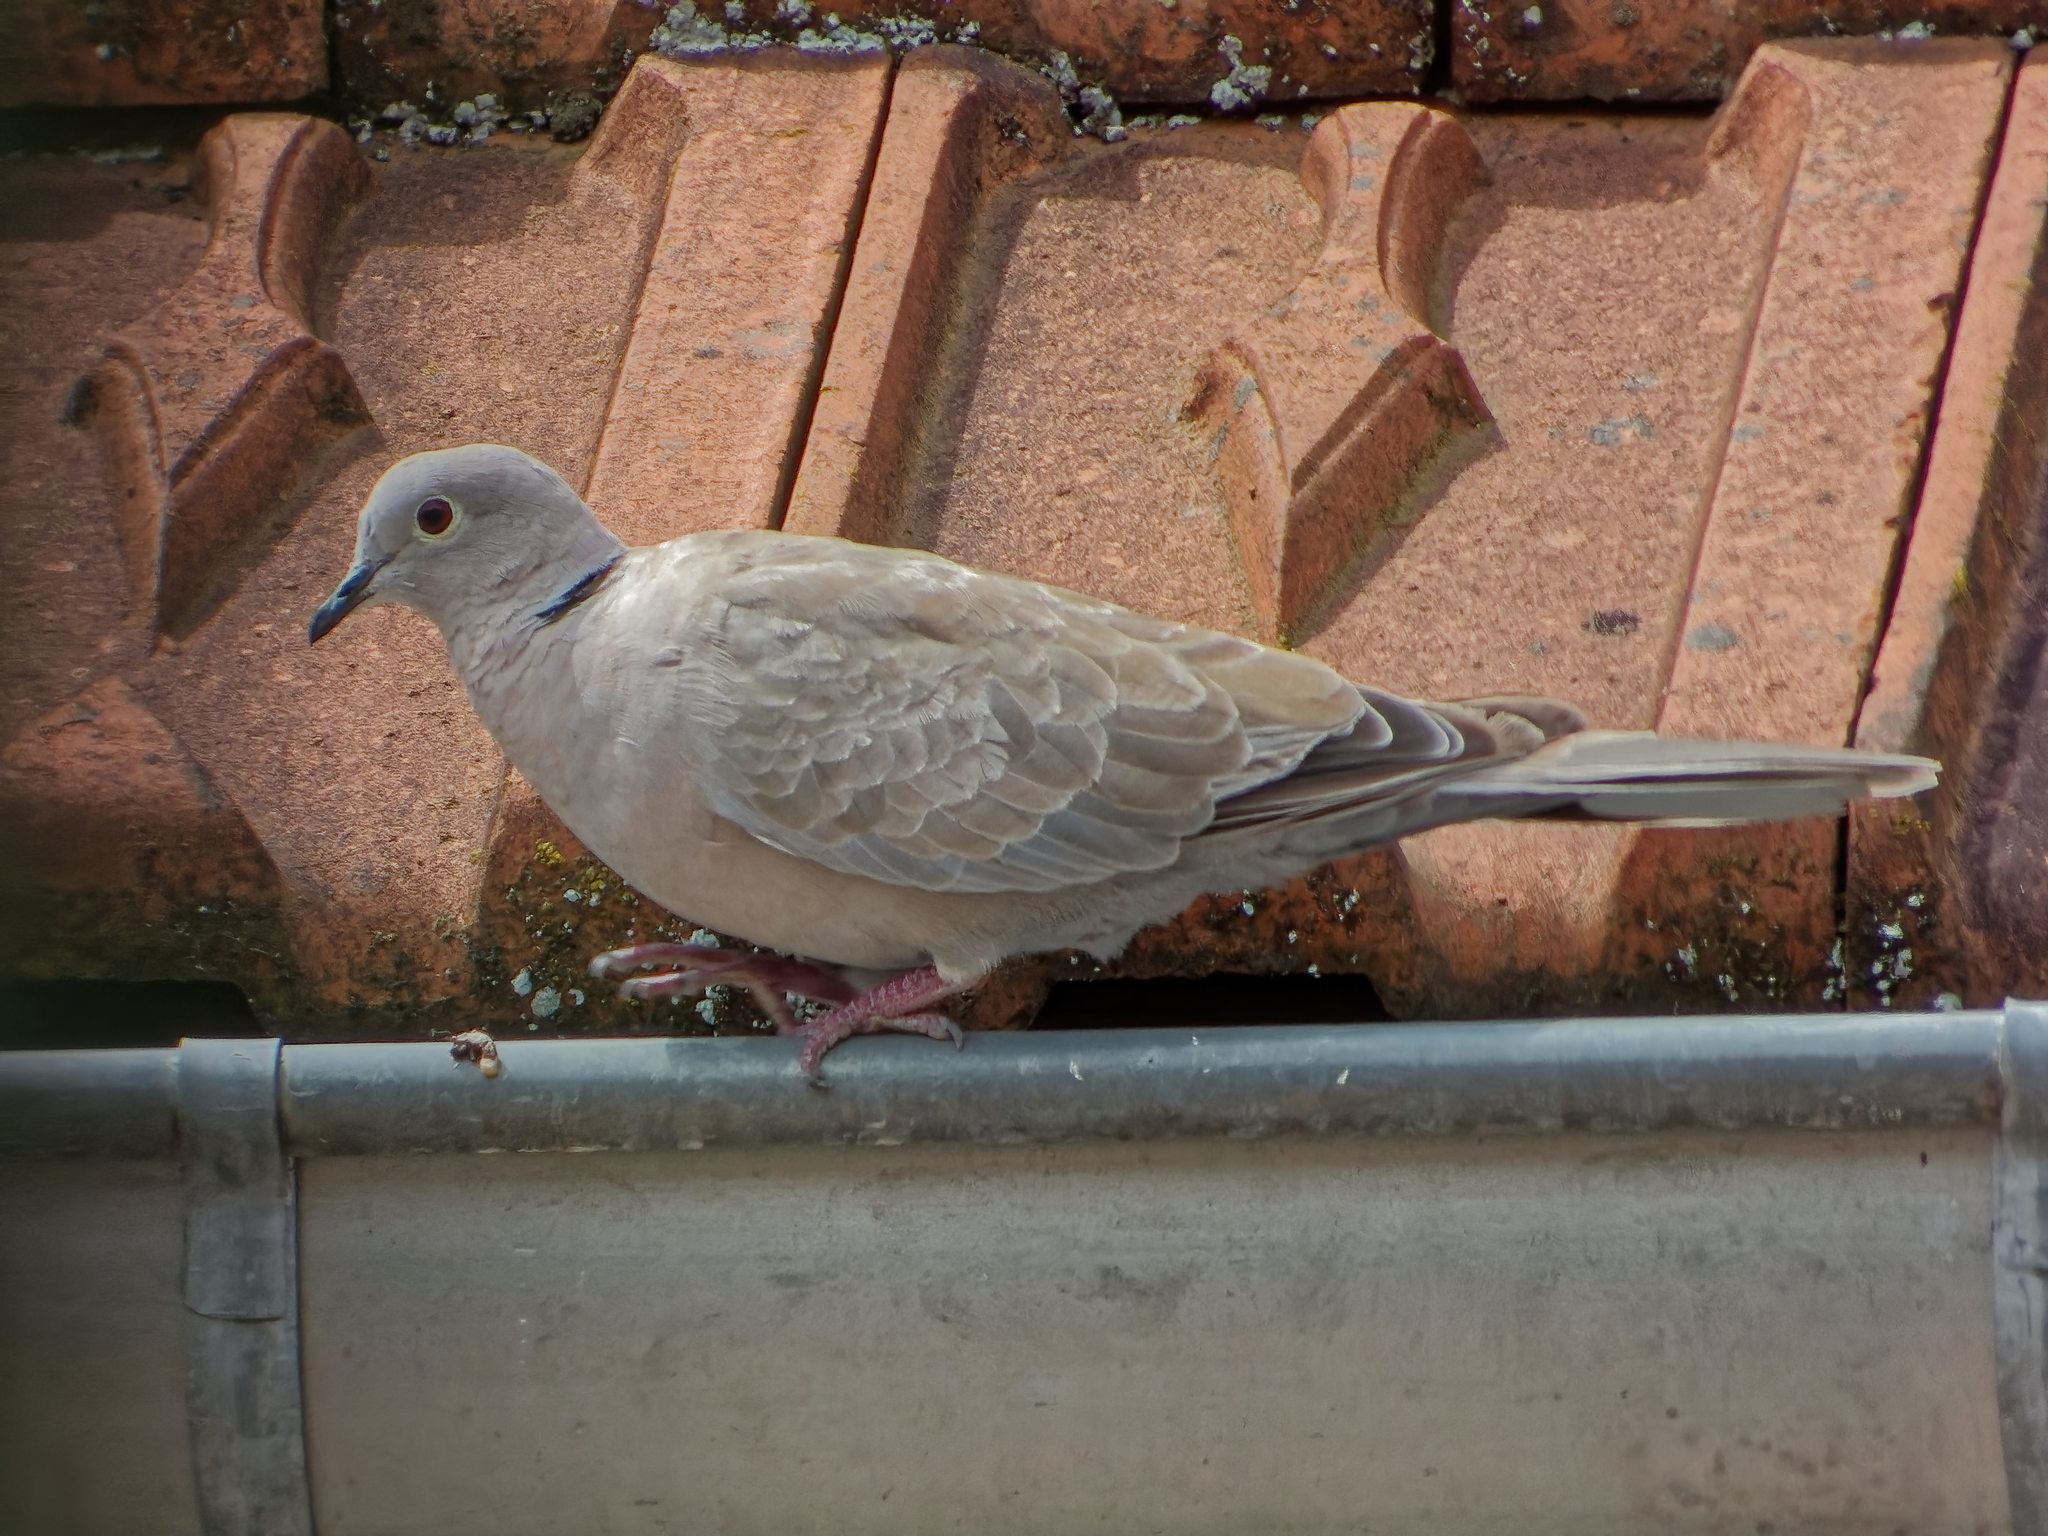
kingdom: Animalia
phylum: Chordata
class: Aves
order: Columbiformes
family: Columbidae
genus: Streptopelia
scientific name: Streptopelia decaocto
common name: Eurasian collared dove
